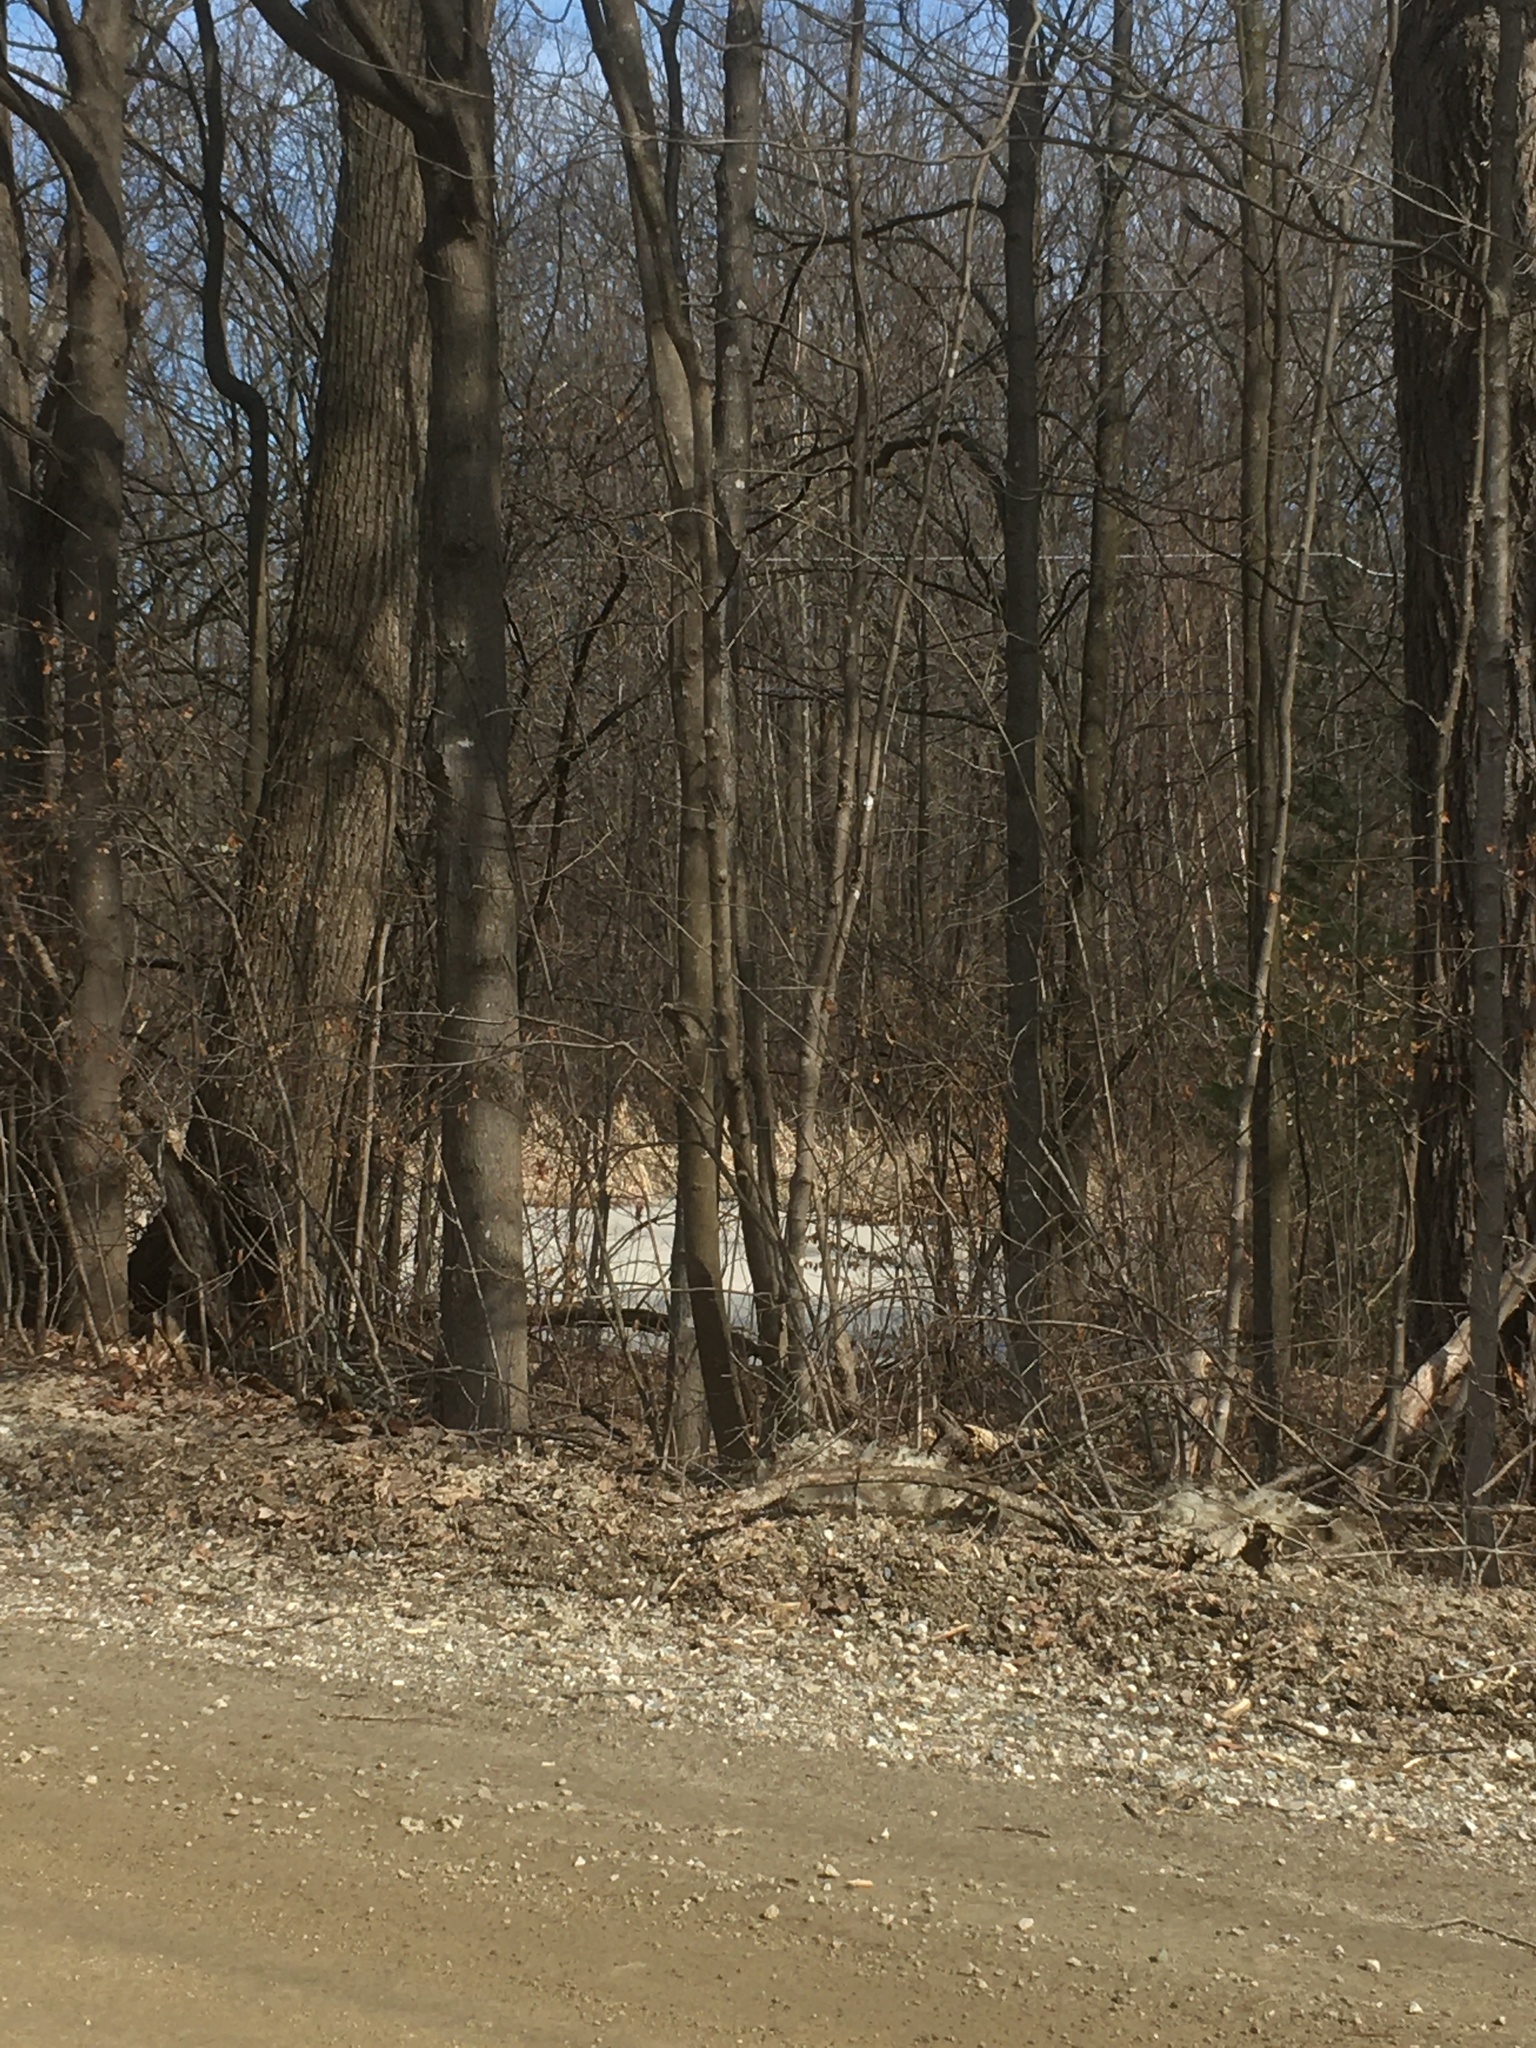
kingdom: Plantae
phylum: Tracheophyta
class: Pinopsida
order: Pinales
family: Pinaceae
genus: Pinus
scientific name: Pinus strobus
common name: Weymouth pine
